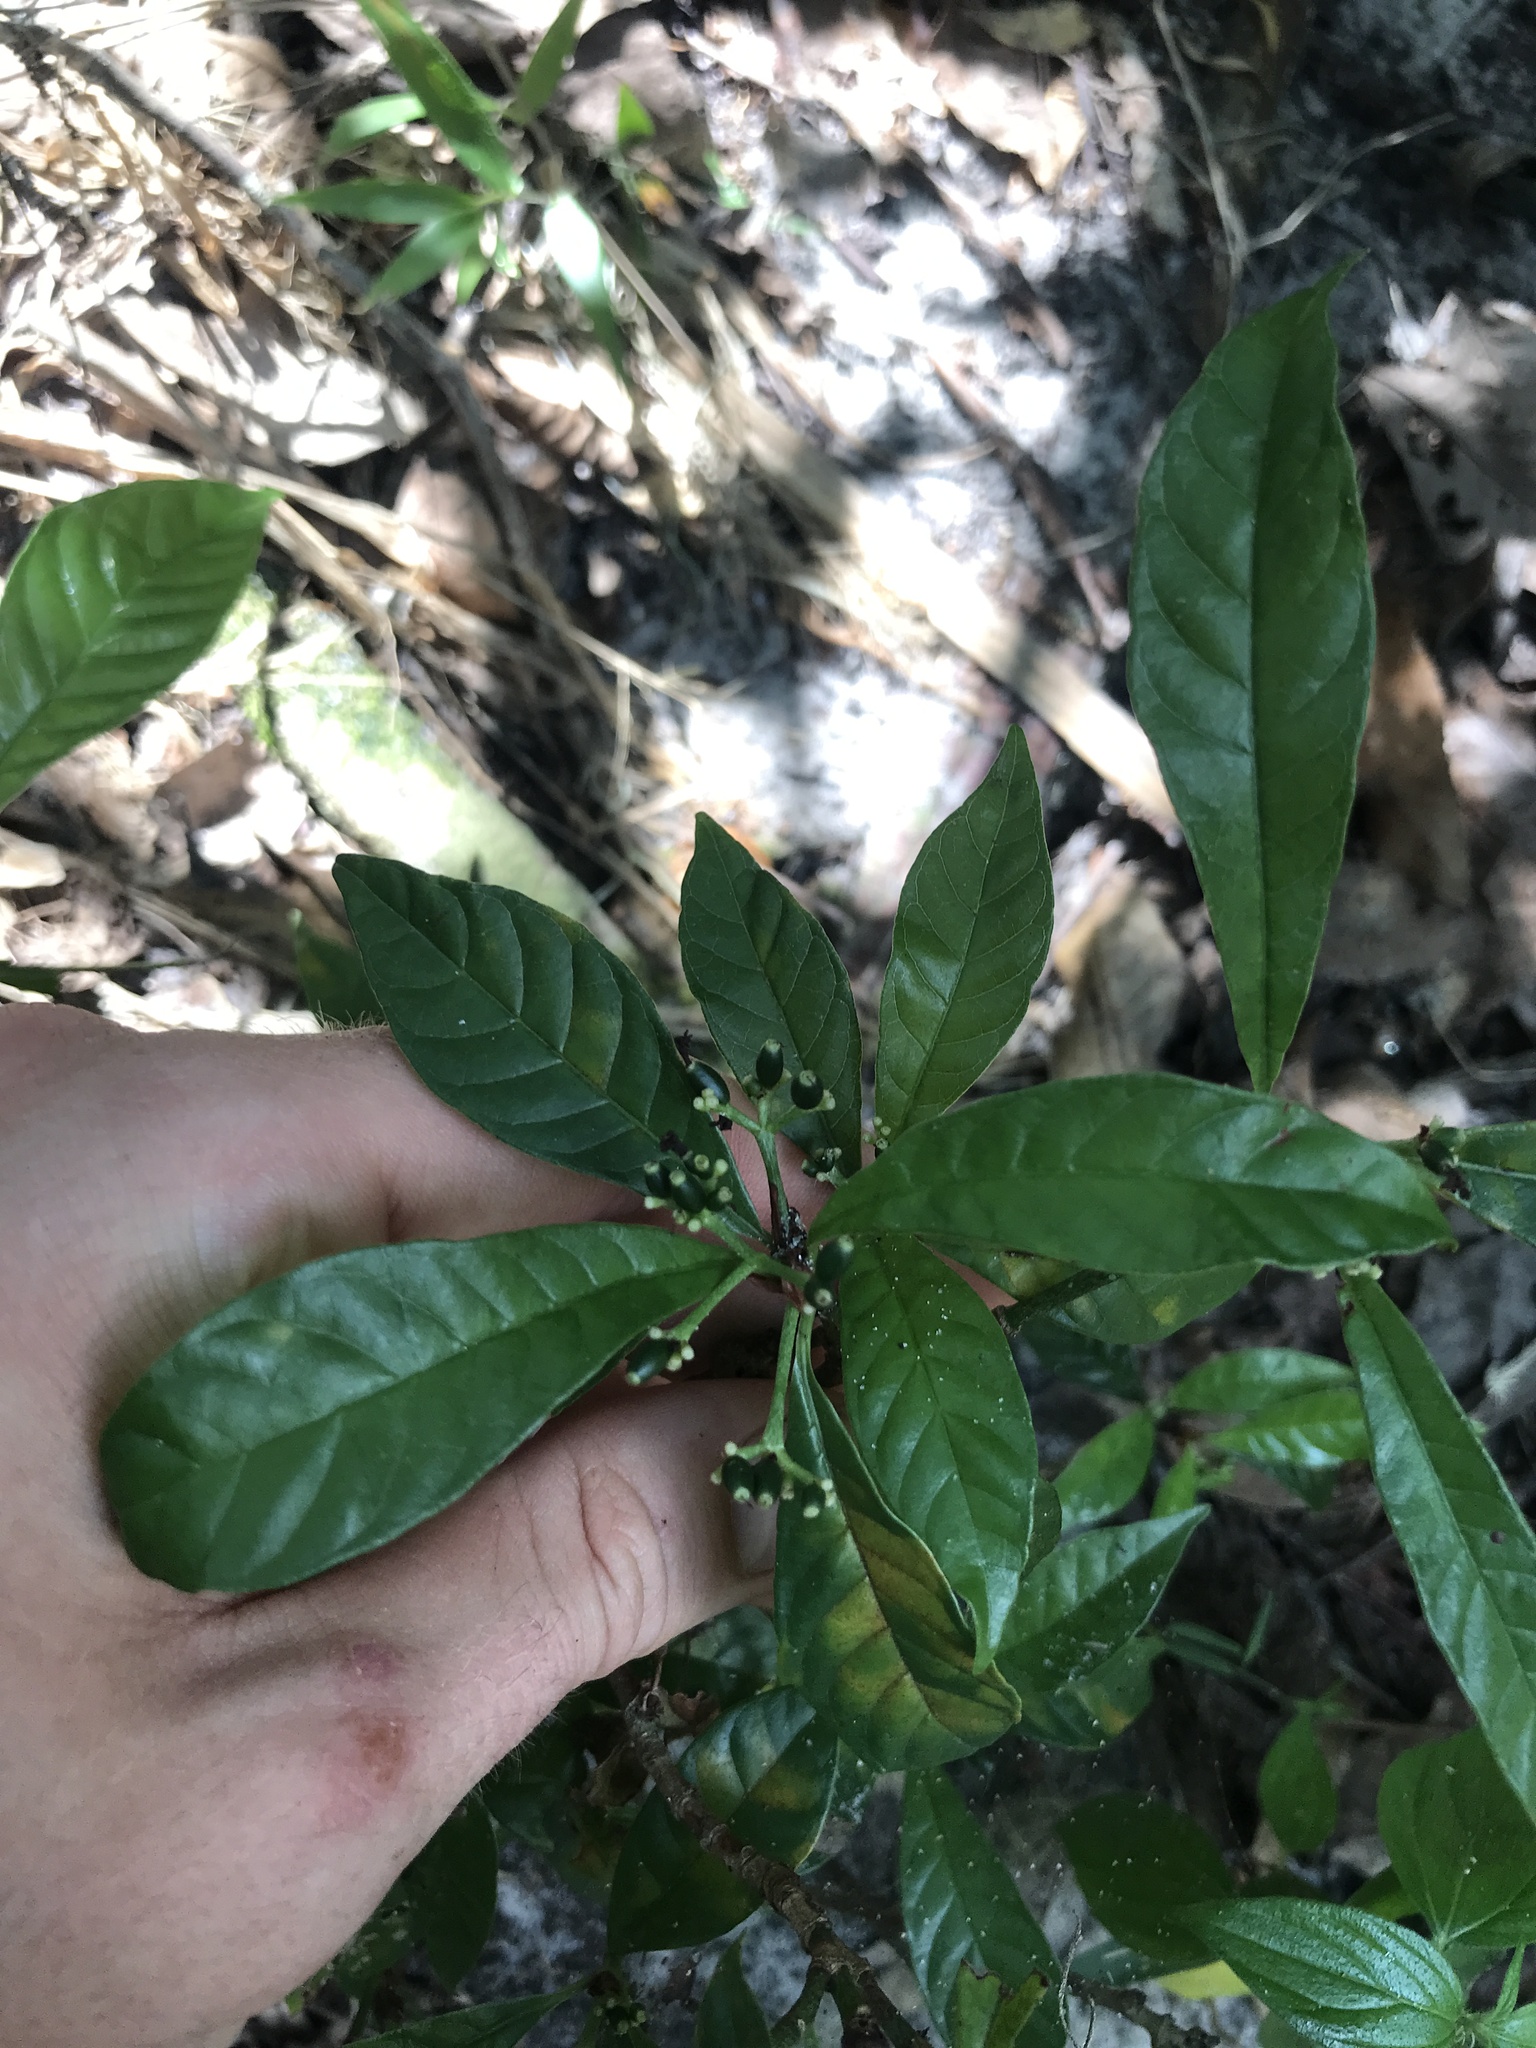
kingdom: Plantae
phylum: Tracheophyta
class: Magnoliopsida
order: Gentianales
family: Rubiaceae
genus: Psychotria
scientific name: Psychotria nervosa
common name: Bastard cankerberry
